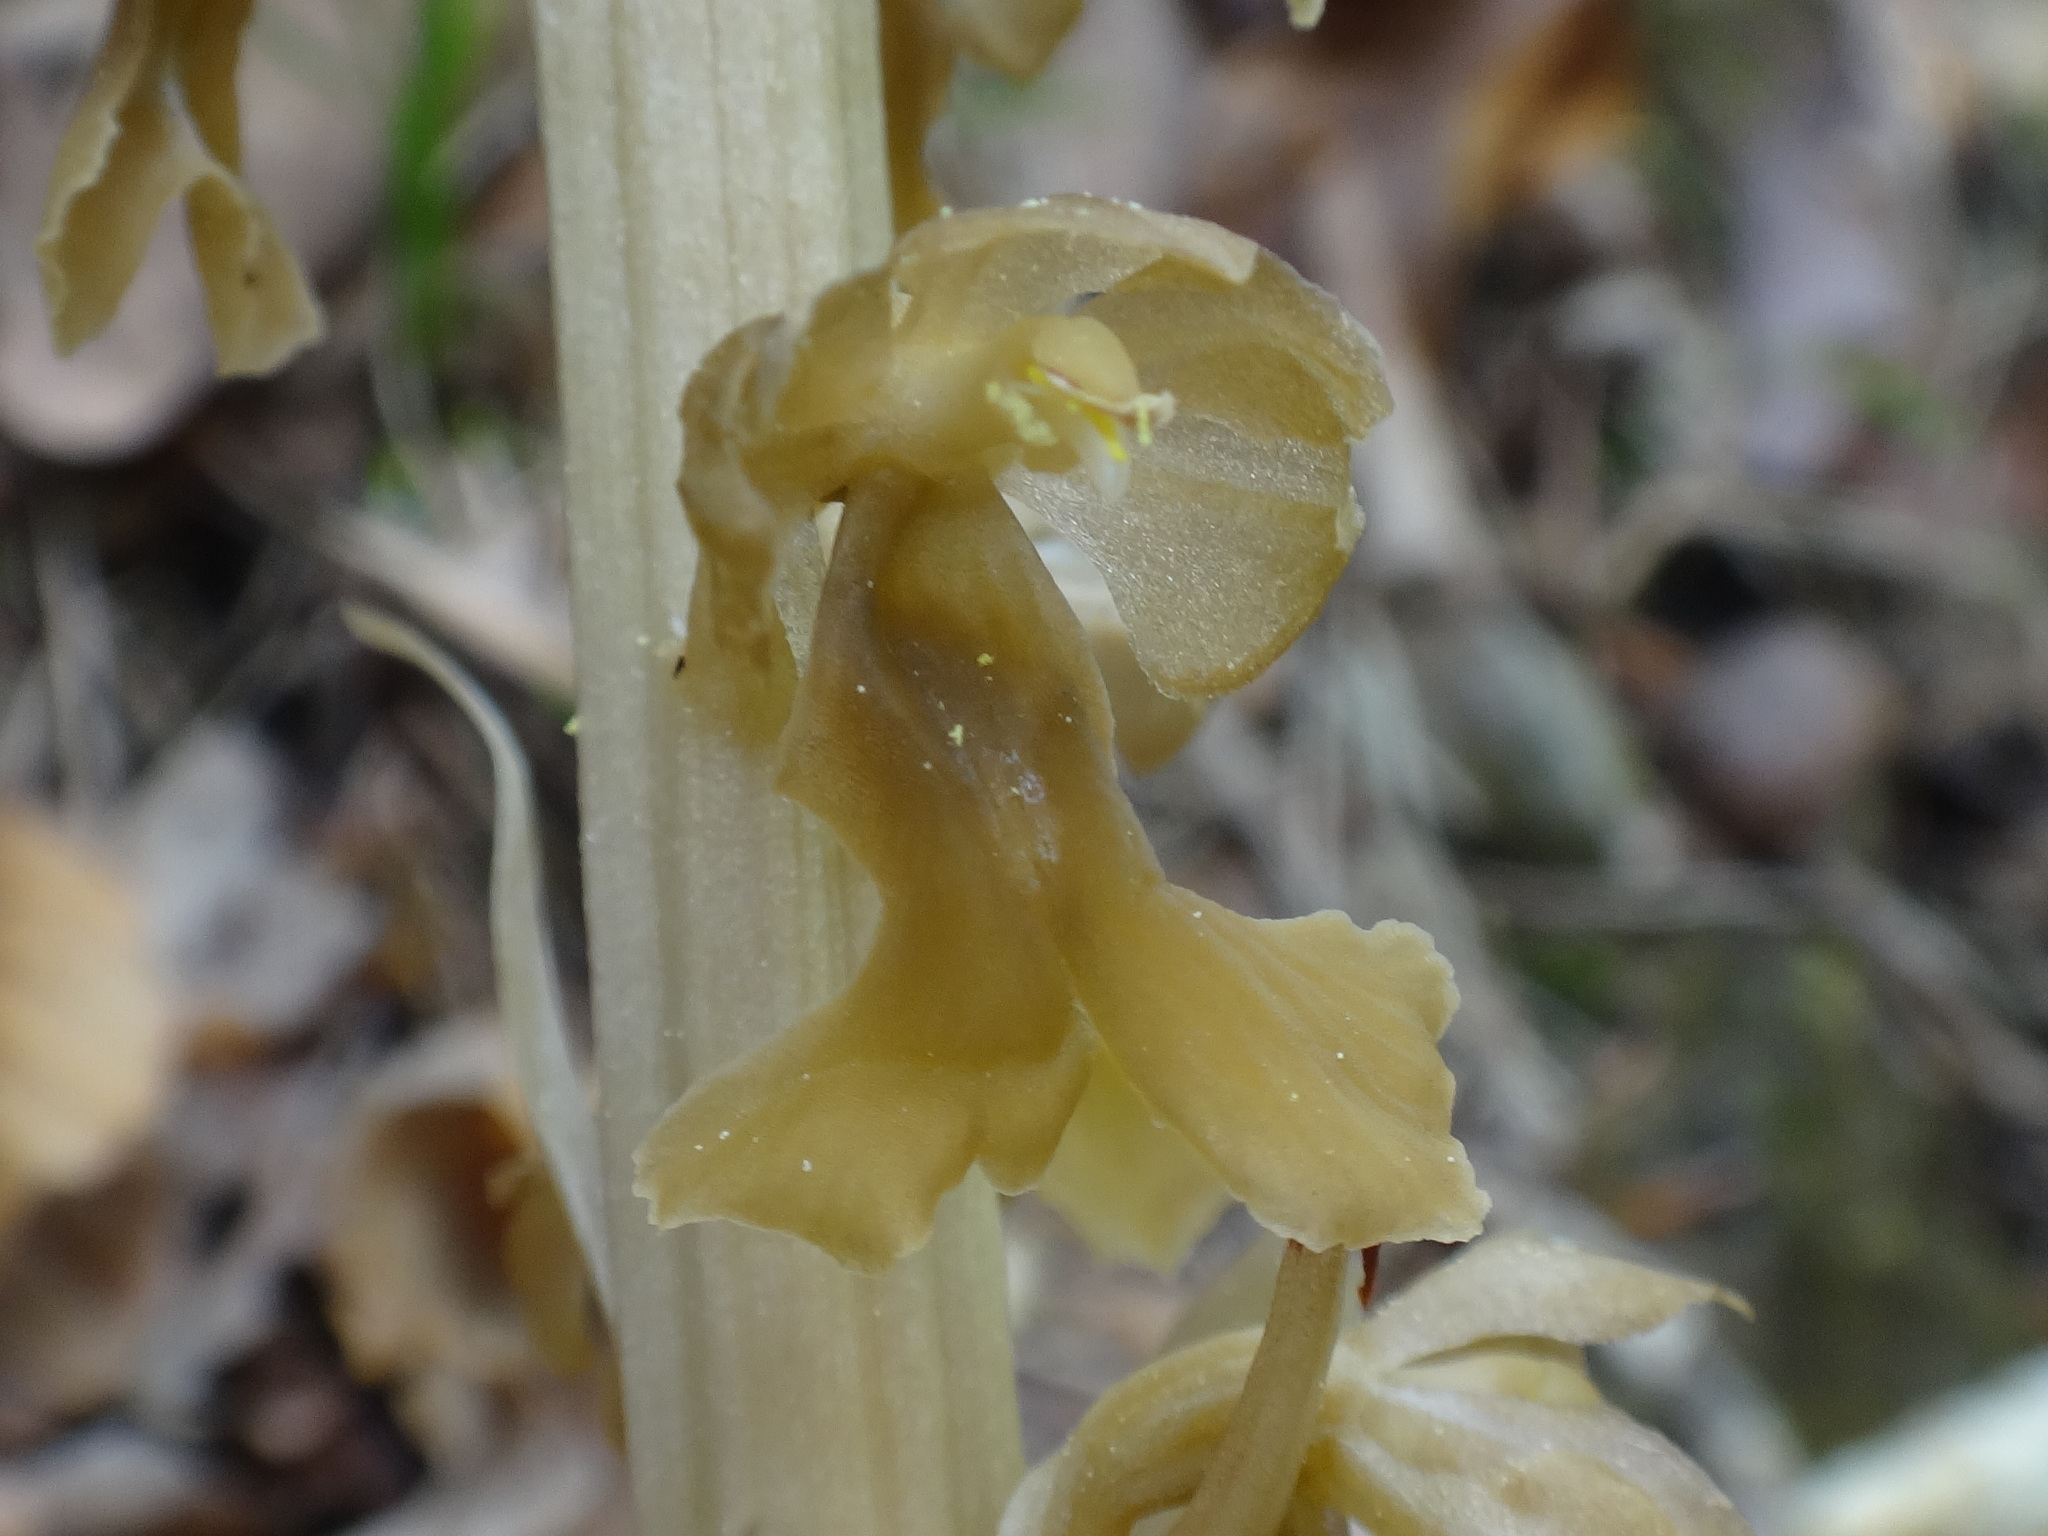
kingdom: Plantae
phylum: Tracheophyta
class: Liliopsida
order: Asparagales
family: Orchidaceae
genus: Neottia
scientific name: Neottia nidus-avis
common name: Bird's-nest orchid
